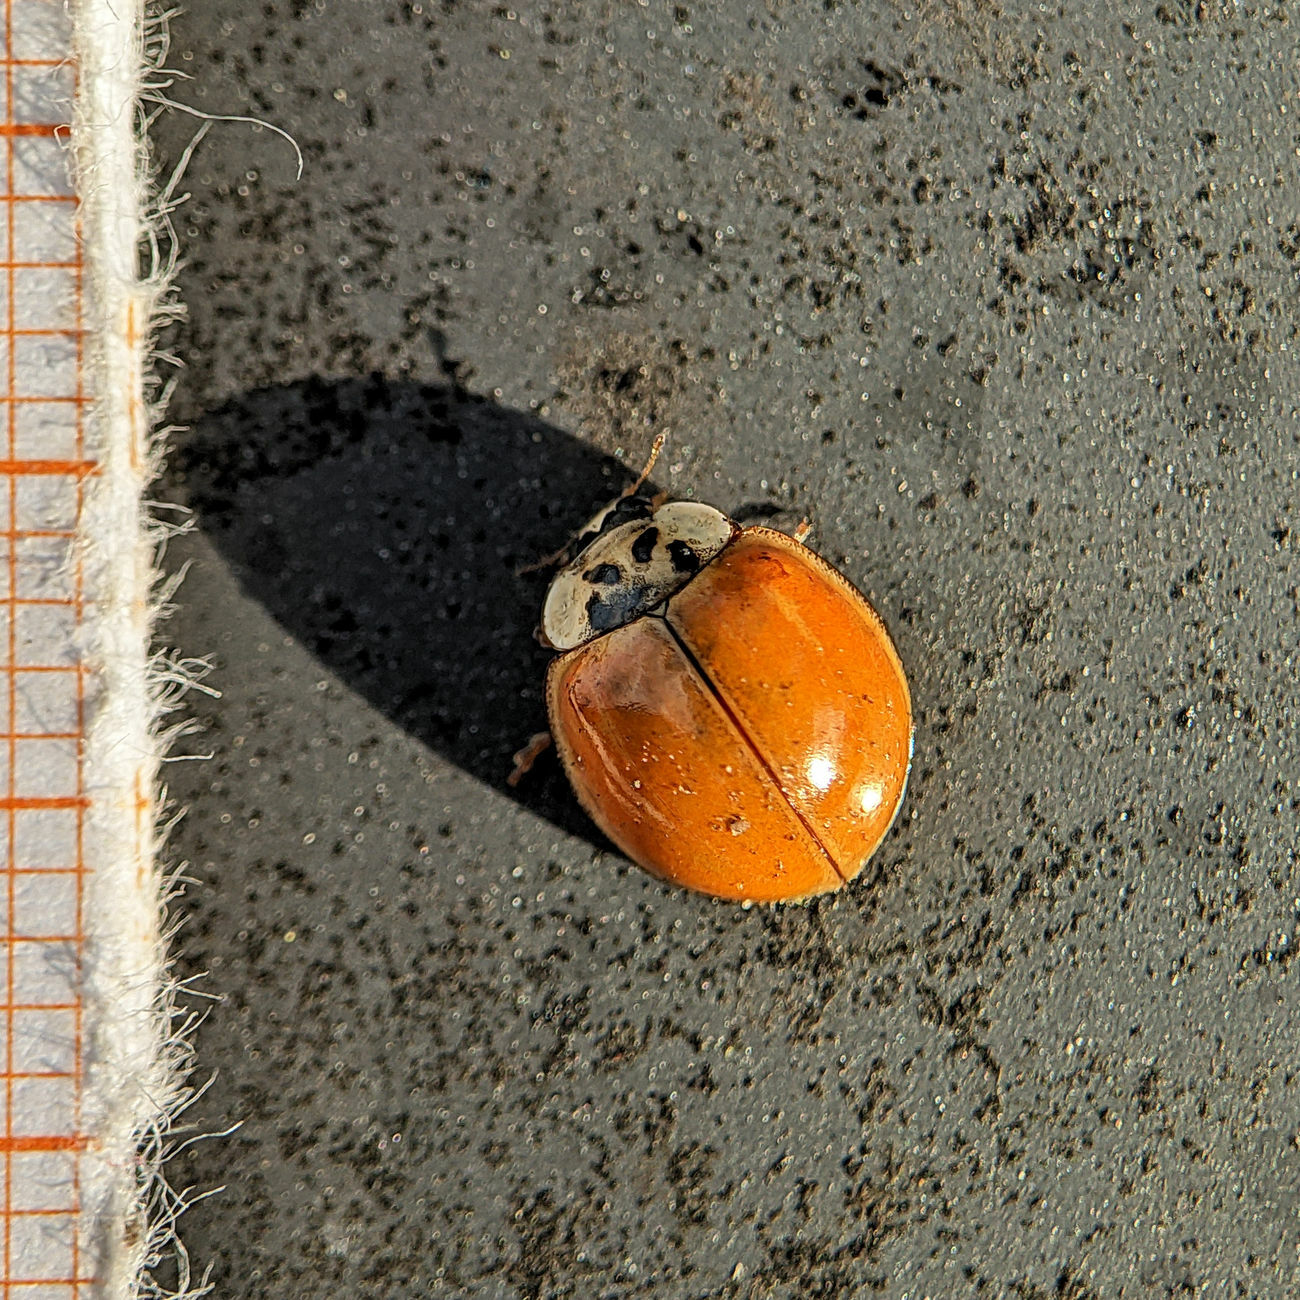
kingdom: Animalia
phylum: Arthropoda
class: Insecta
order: Coleoptera
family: Coccinellidae
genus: Harmonia
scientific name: Harmonia axyridis
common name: Harlequin ladybird
